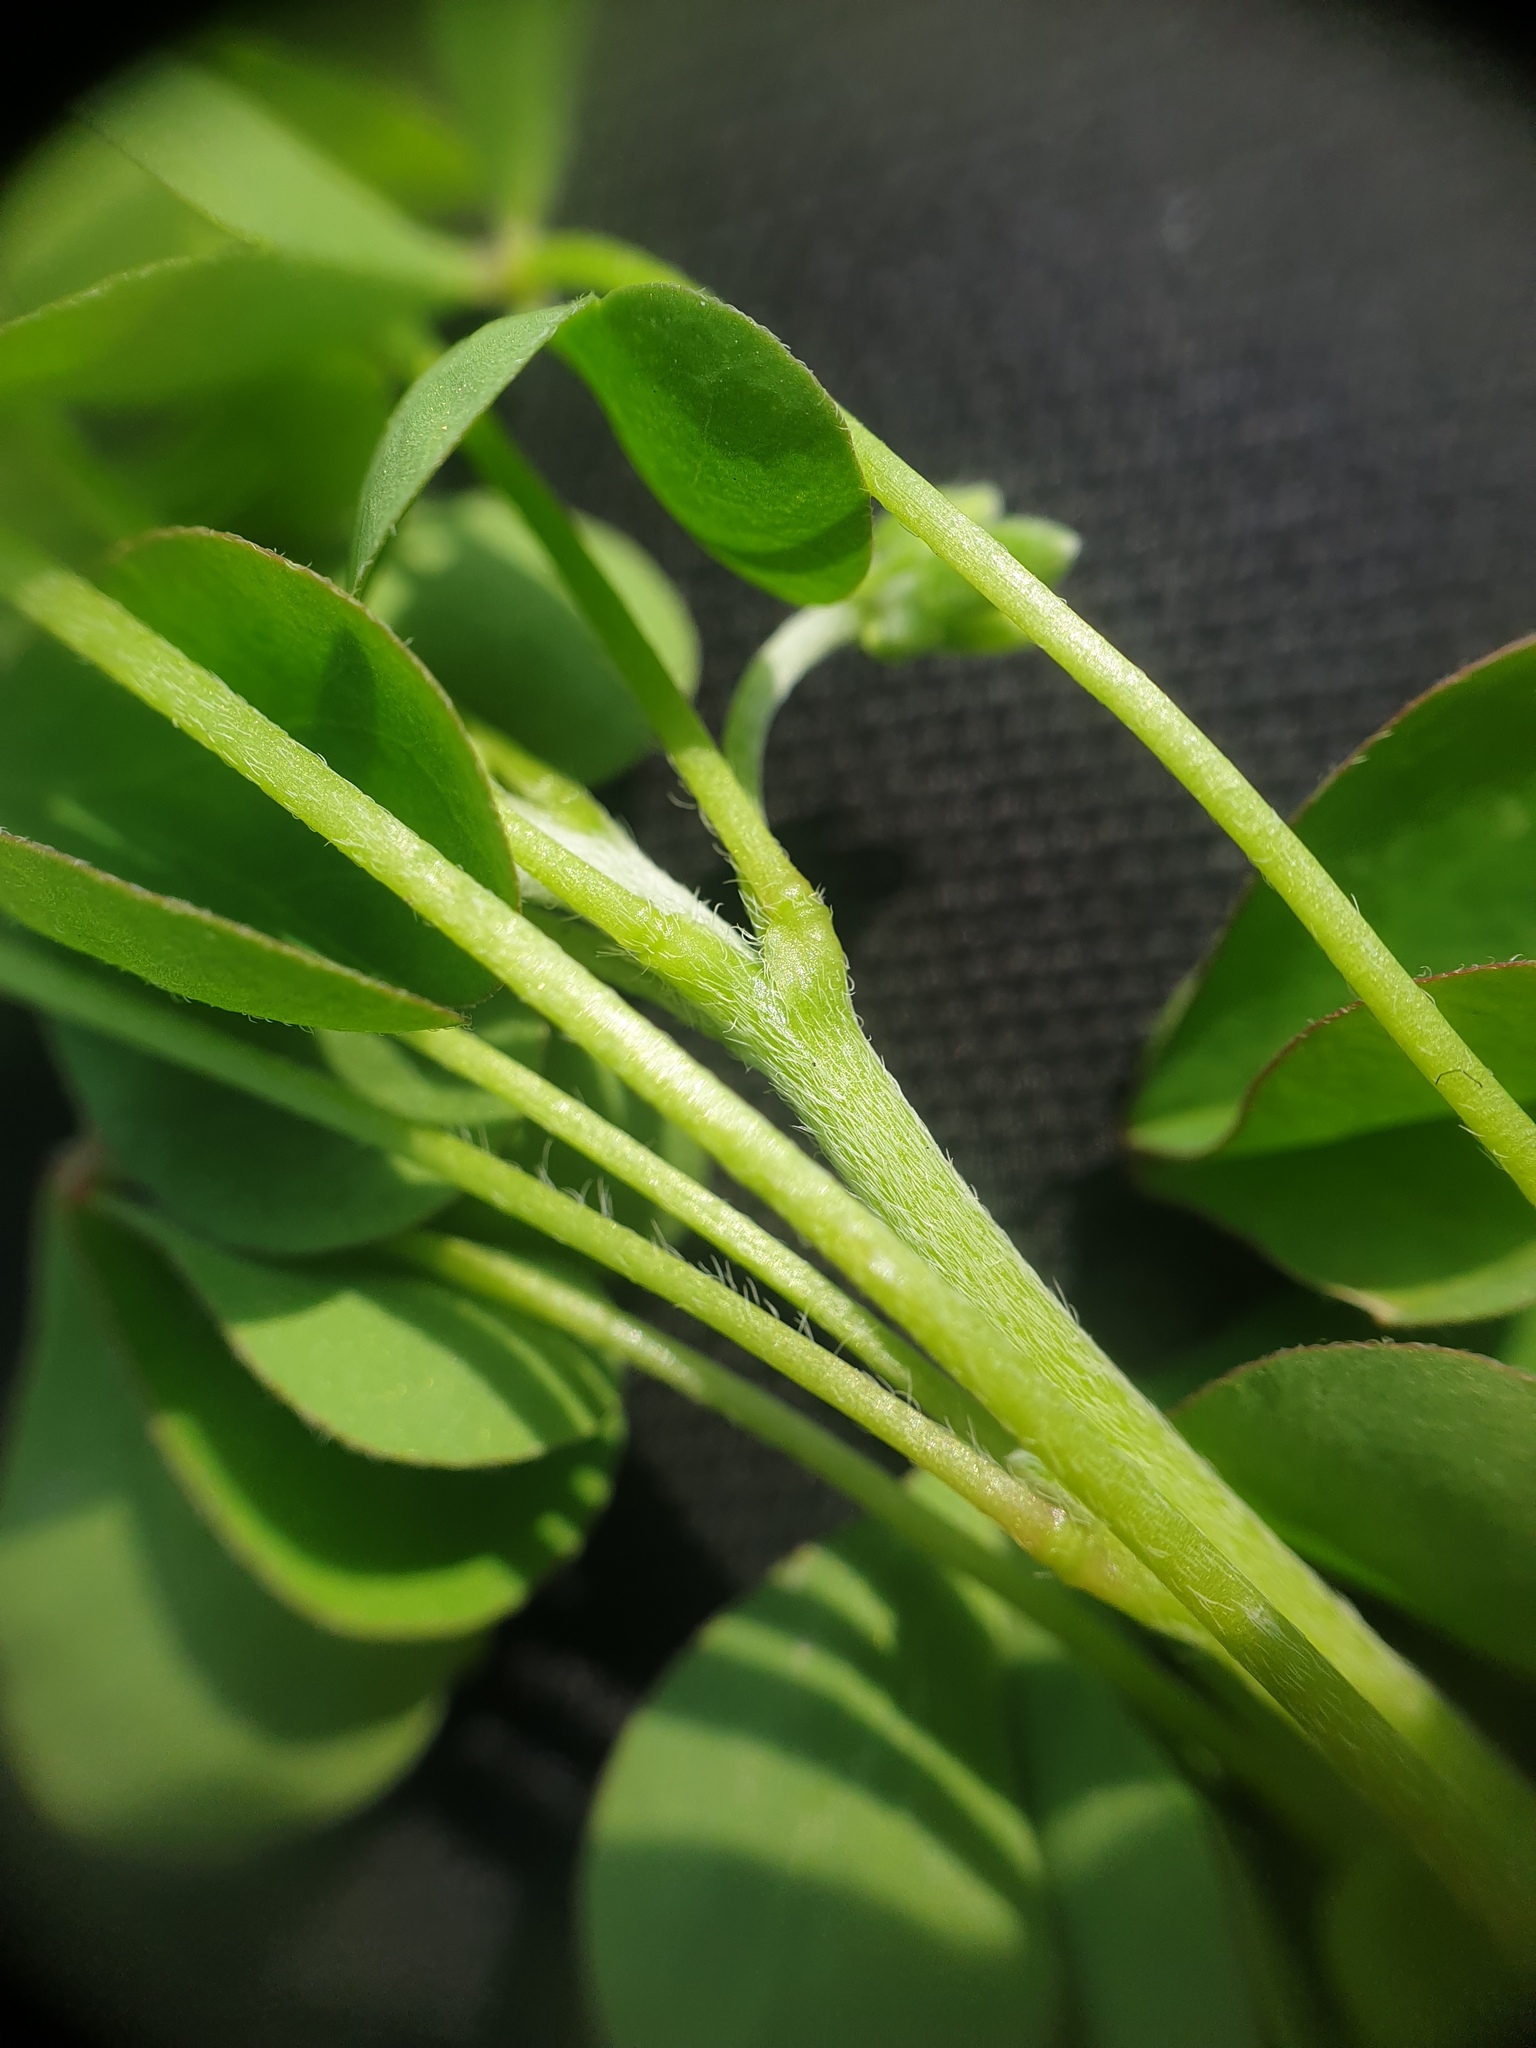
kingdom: Plantae
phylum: Tracheophyta
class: Magnoliopsida
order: Oxalidales
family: Oxalidaceae
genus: Oxalis
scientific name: Oxalis dillenii
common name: Sussex yellow-sorrel
